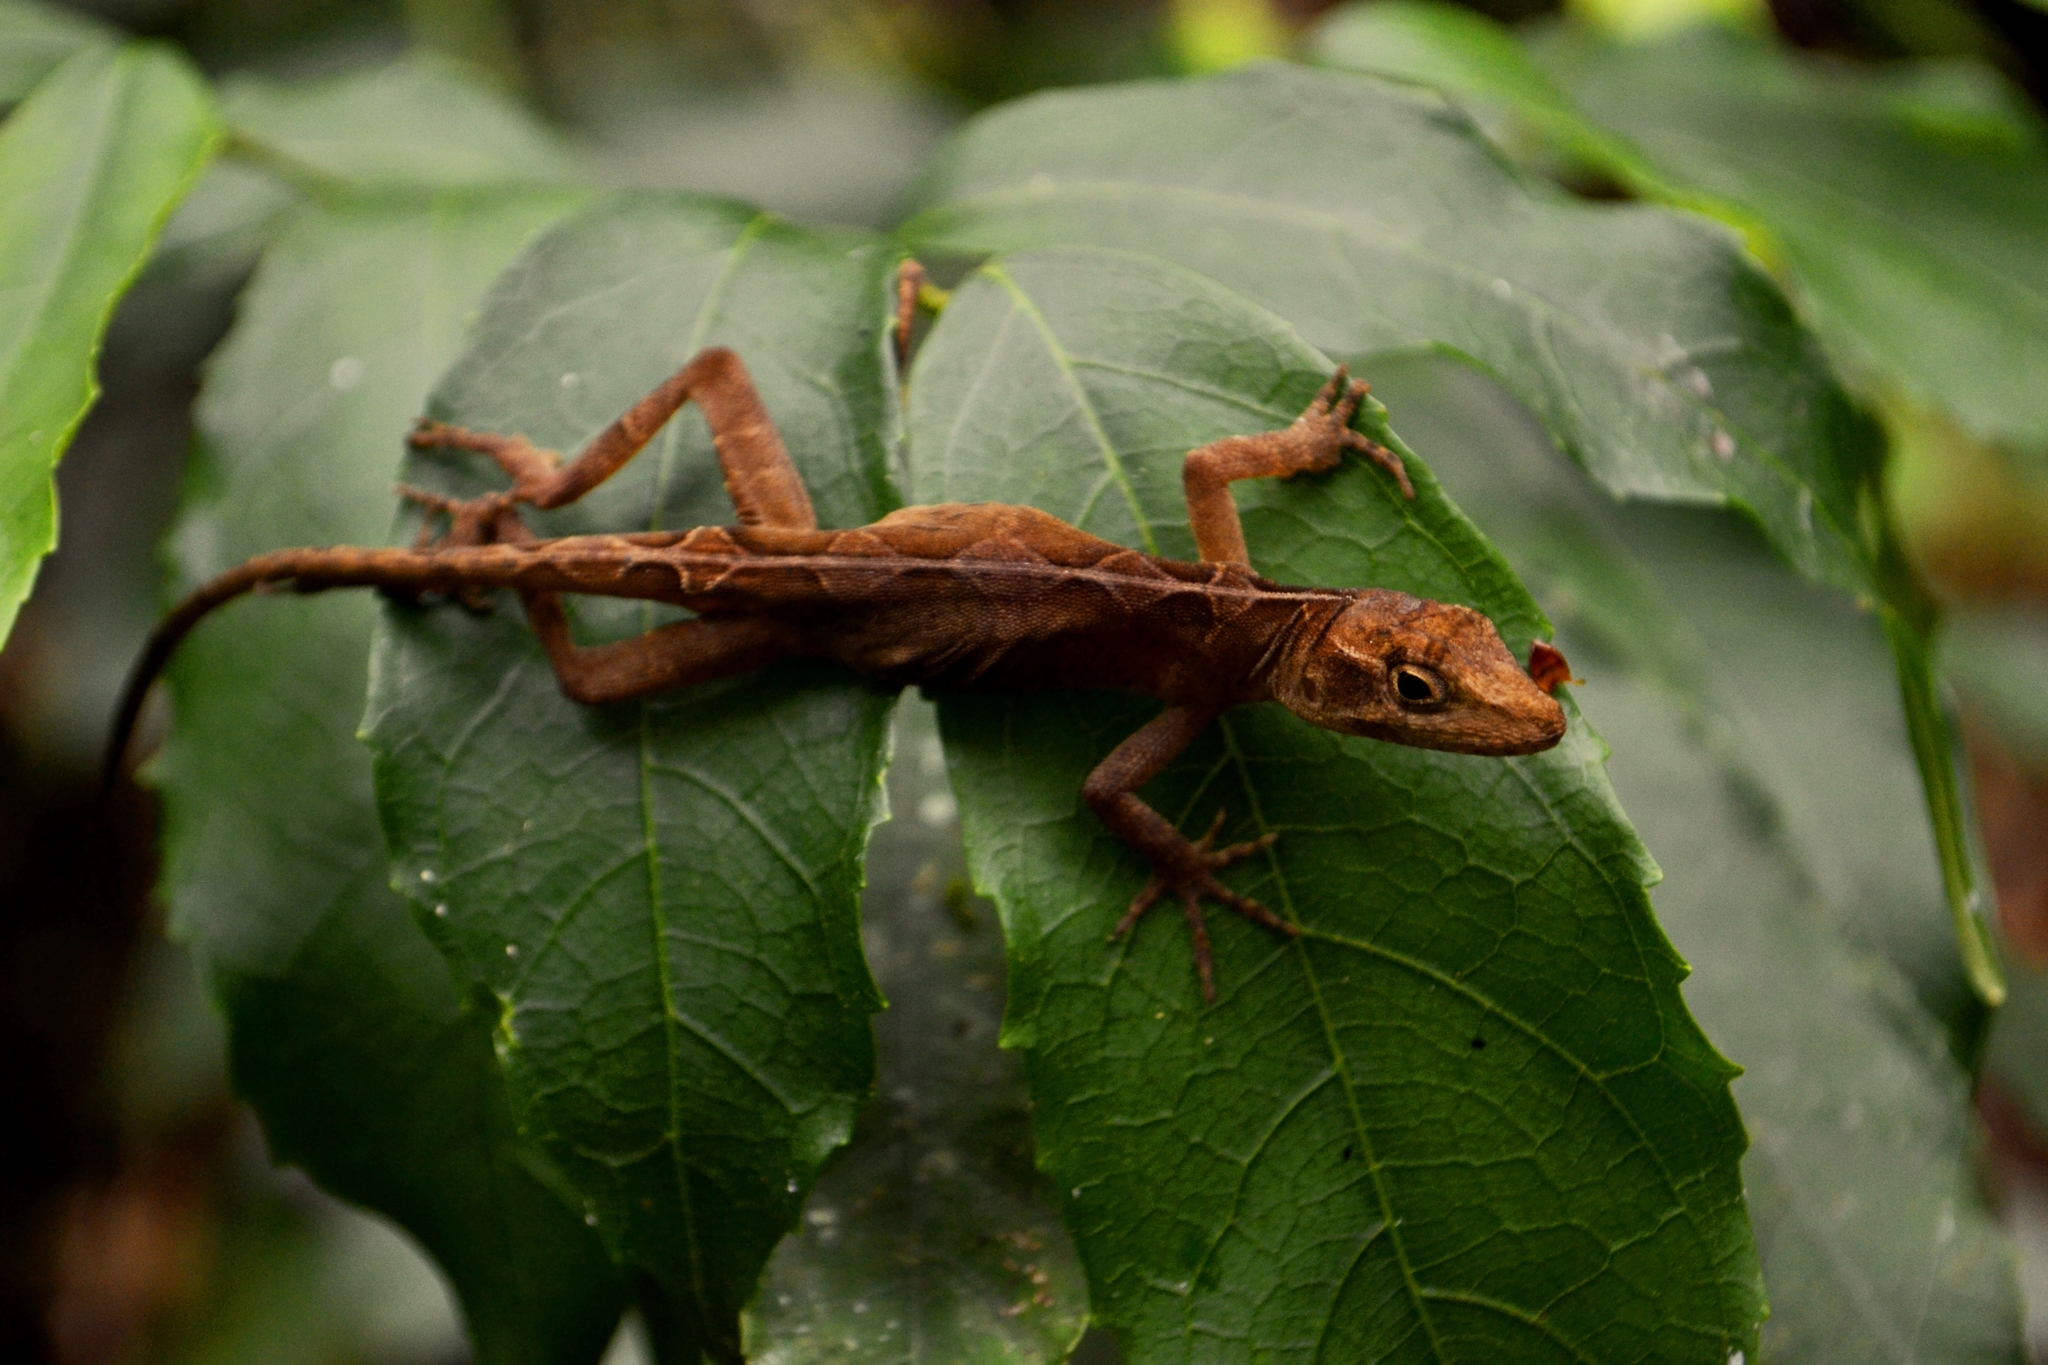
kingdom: Animalia
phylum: Chordata
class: Squamata
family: Dactyloidae
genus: Anolis
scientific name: Anolis dollfusianus
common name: Coffee anole
